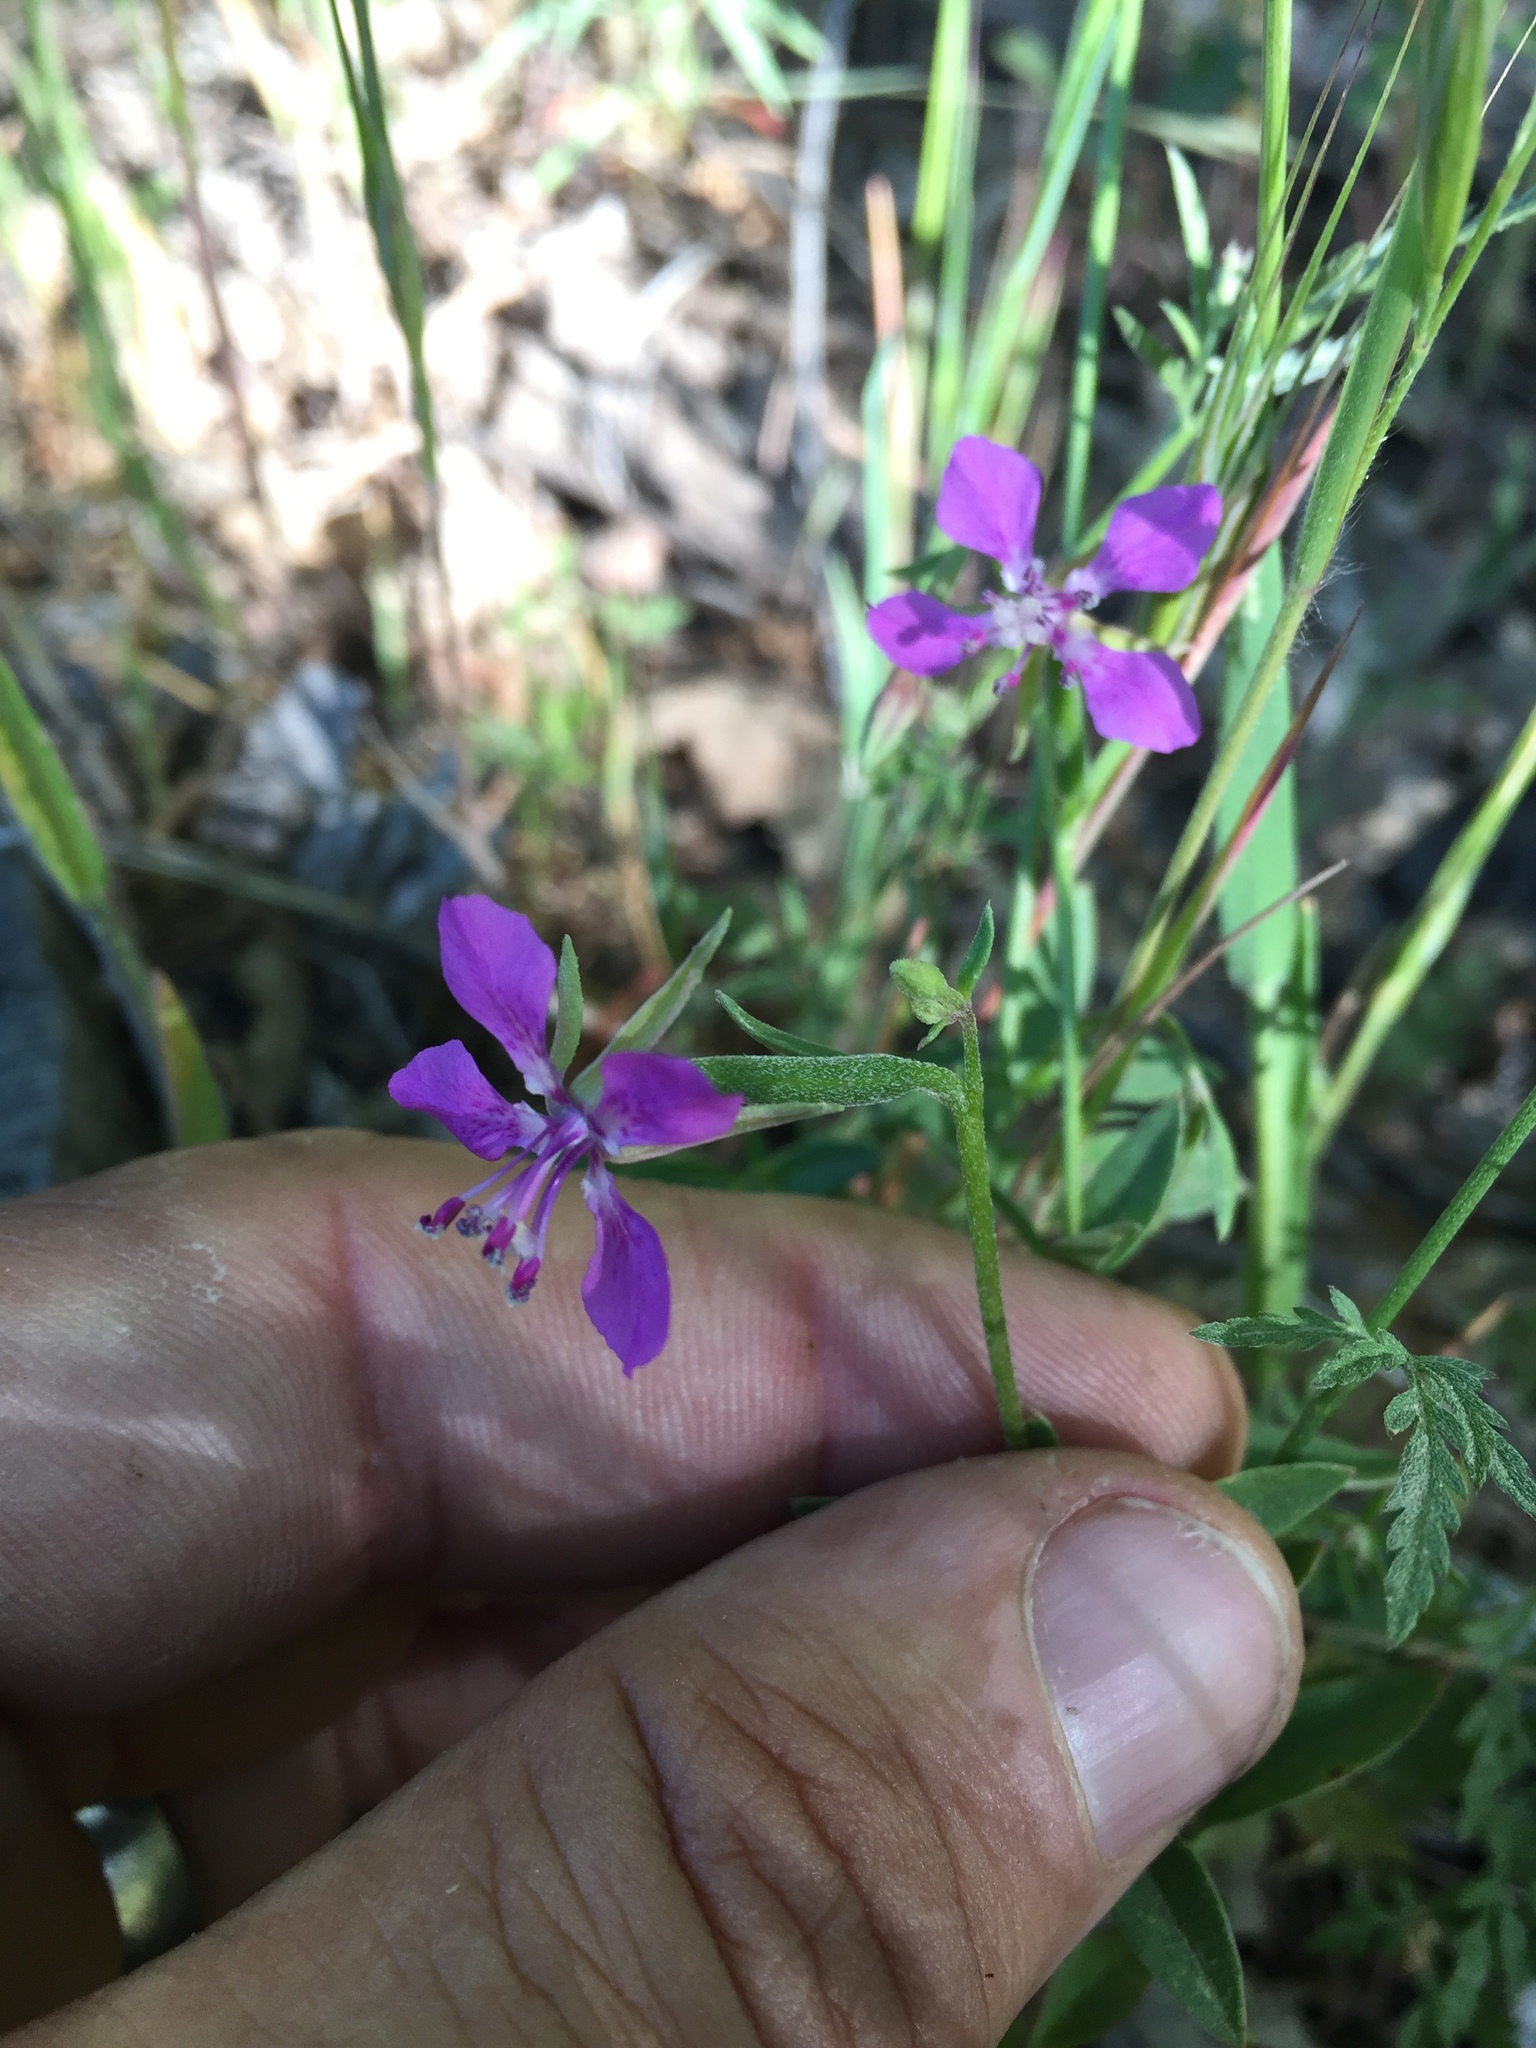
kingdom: Plantae
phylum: Tracheophyta
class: Magnoliopsida
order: Myrtales
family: Onagraceae
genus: Clarkia
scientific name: Clarkia rhomboidea
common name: Broadleaf clarkia
